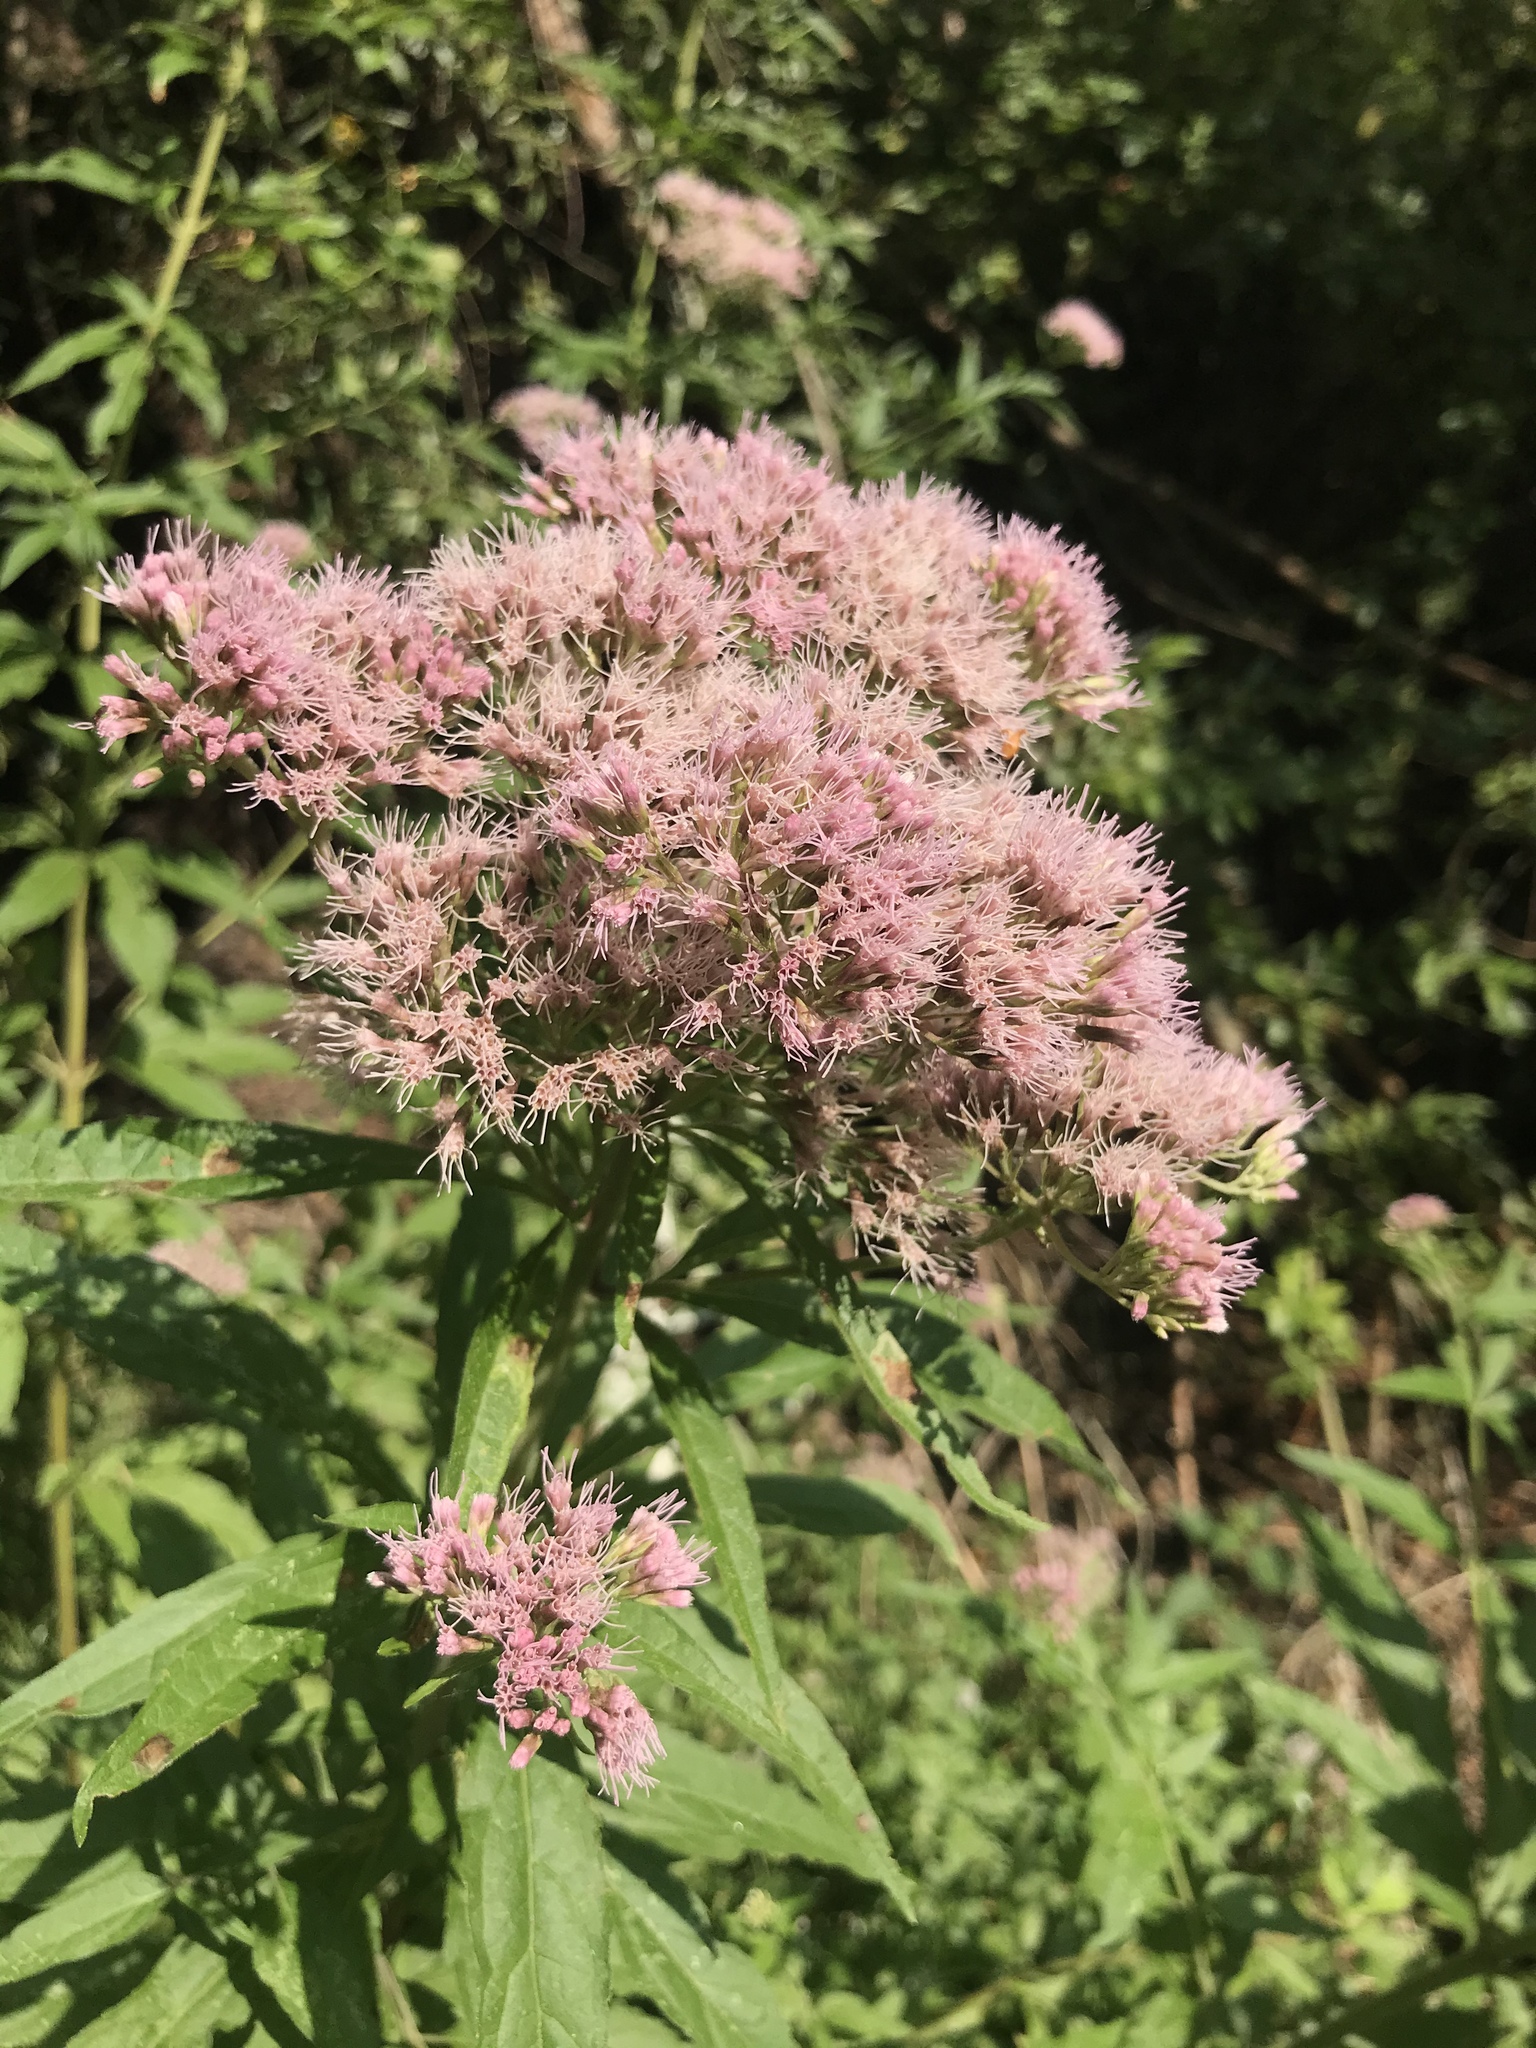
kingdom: Plantae
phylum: Tracheophyta
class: Magnoliopsida
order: Asterales
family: Asteraceae
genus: Eupatorium
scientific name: Eupatorium cannabinum
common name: Hemp-agrimony
